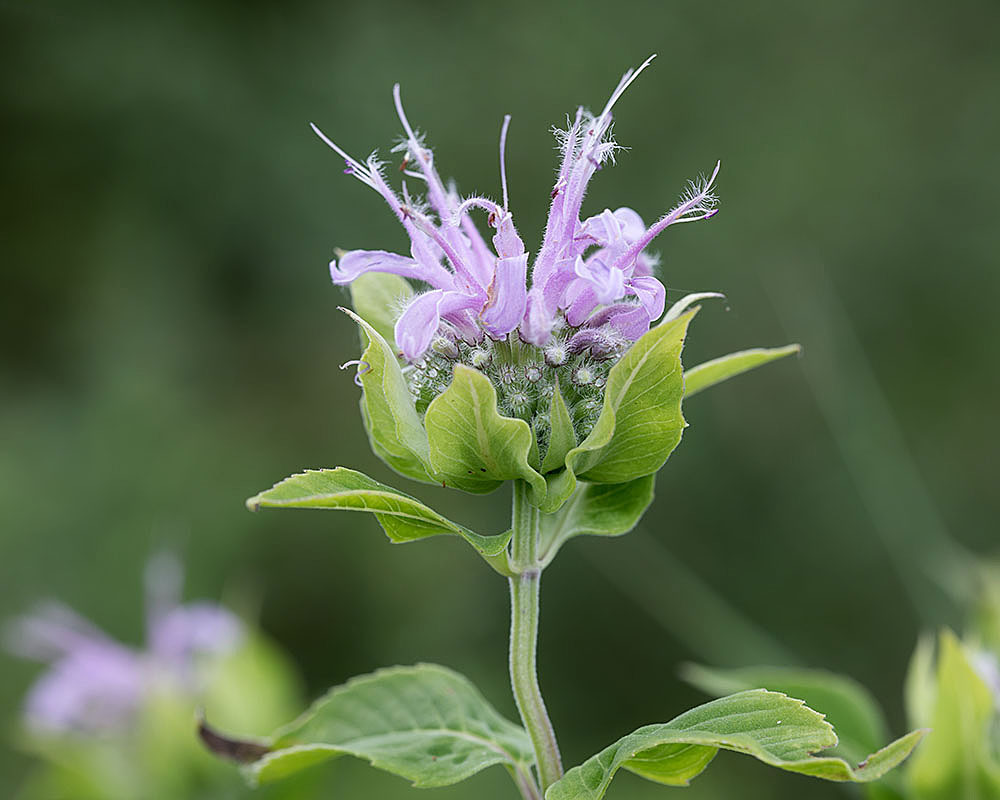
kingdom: Plantae
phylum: Tracheophyta
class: Magnoliopsida
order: Lamiales
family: Lamiaceae
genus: Monarda
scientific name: Monarda fistulosa
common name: Purple beebalm
